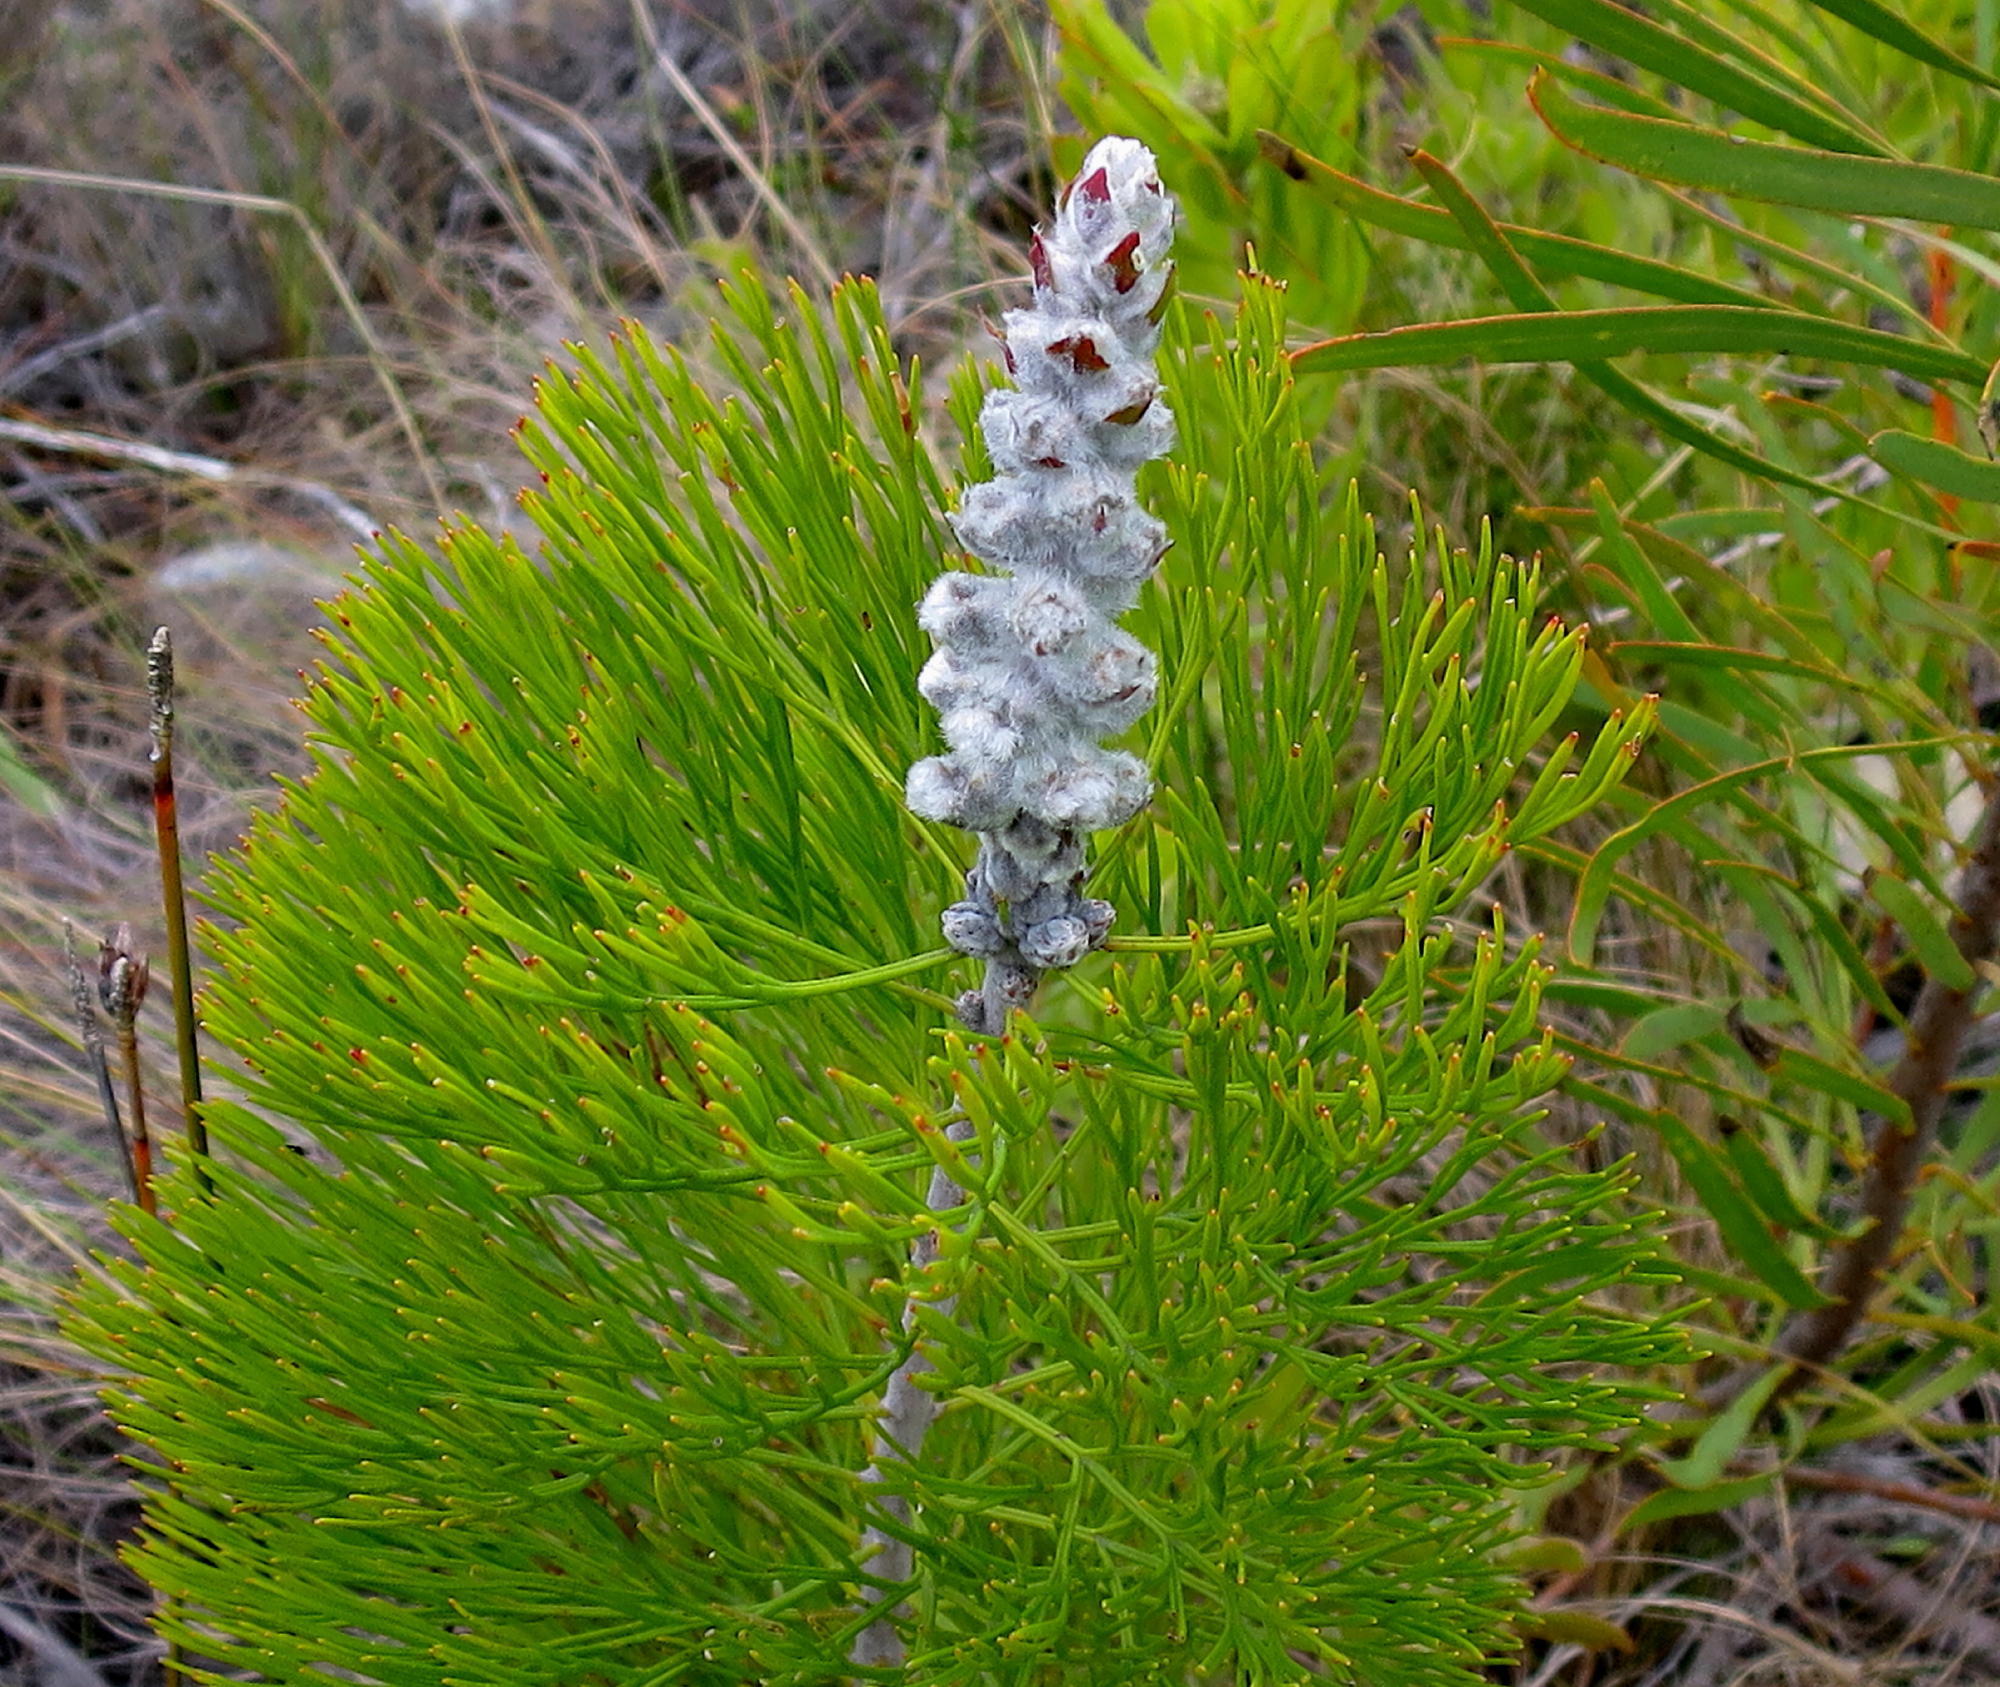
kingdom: Plantae
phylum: Tracheophyta
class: Magnoliopsida
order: Proteales
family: Proteaceae
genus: Paranomus
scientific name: Paranomus dispersus
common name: Long-head sceptre
